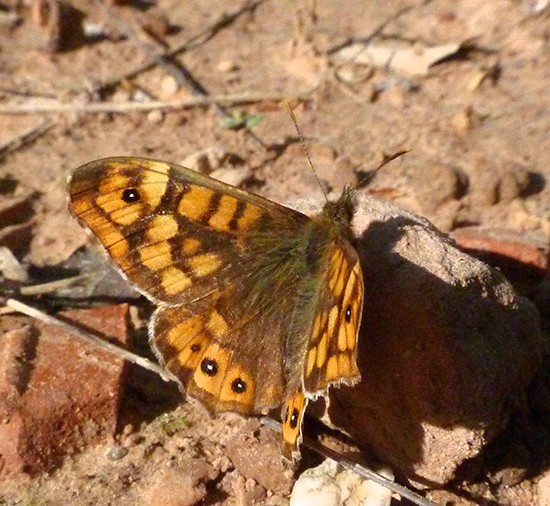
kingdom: Animalia
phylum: Arthropoda
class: Insecta
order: Lepidoptera
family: Nymphalidae
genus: Pararge
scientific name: Pararge aegeria
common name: Speckled wood
